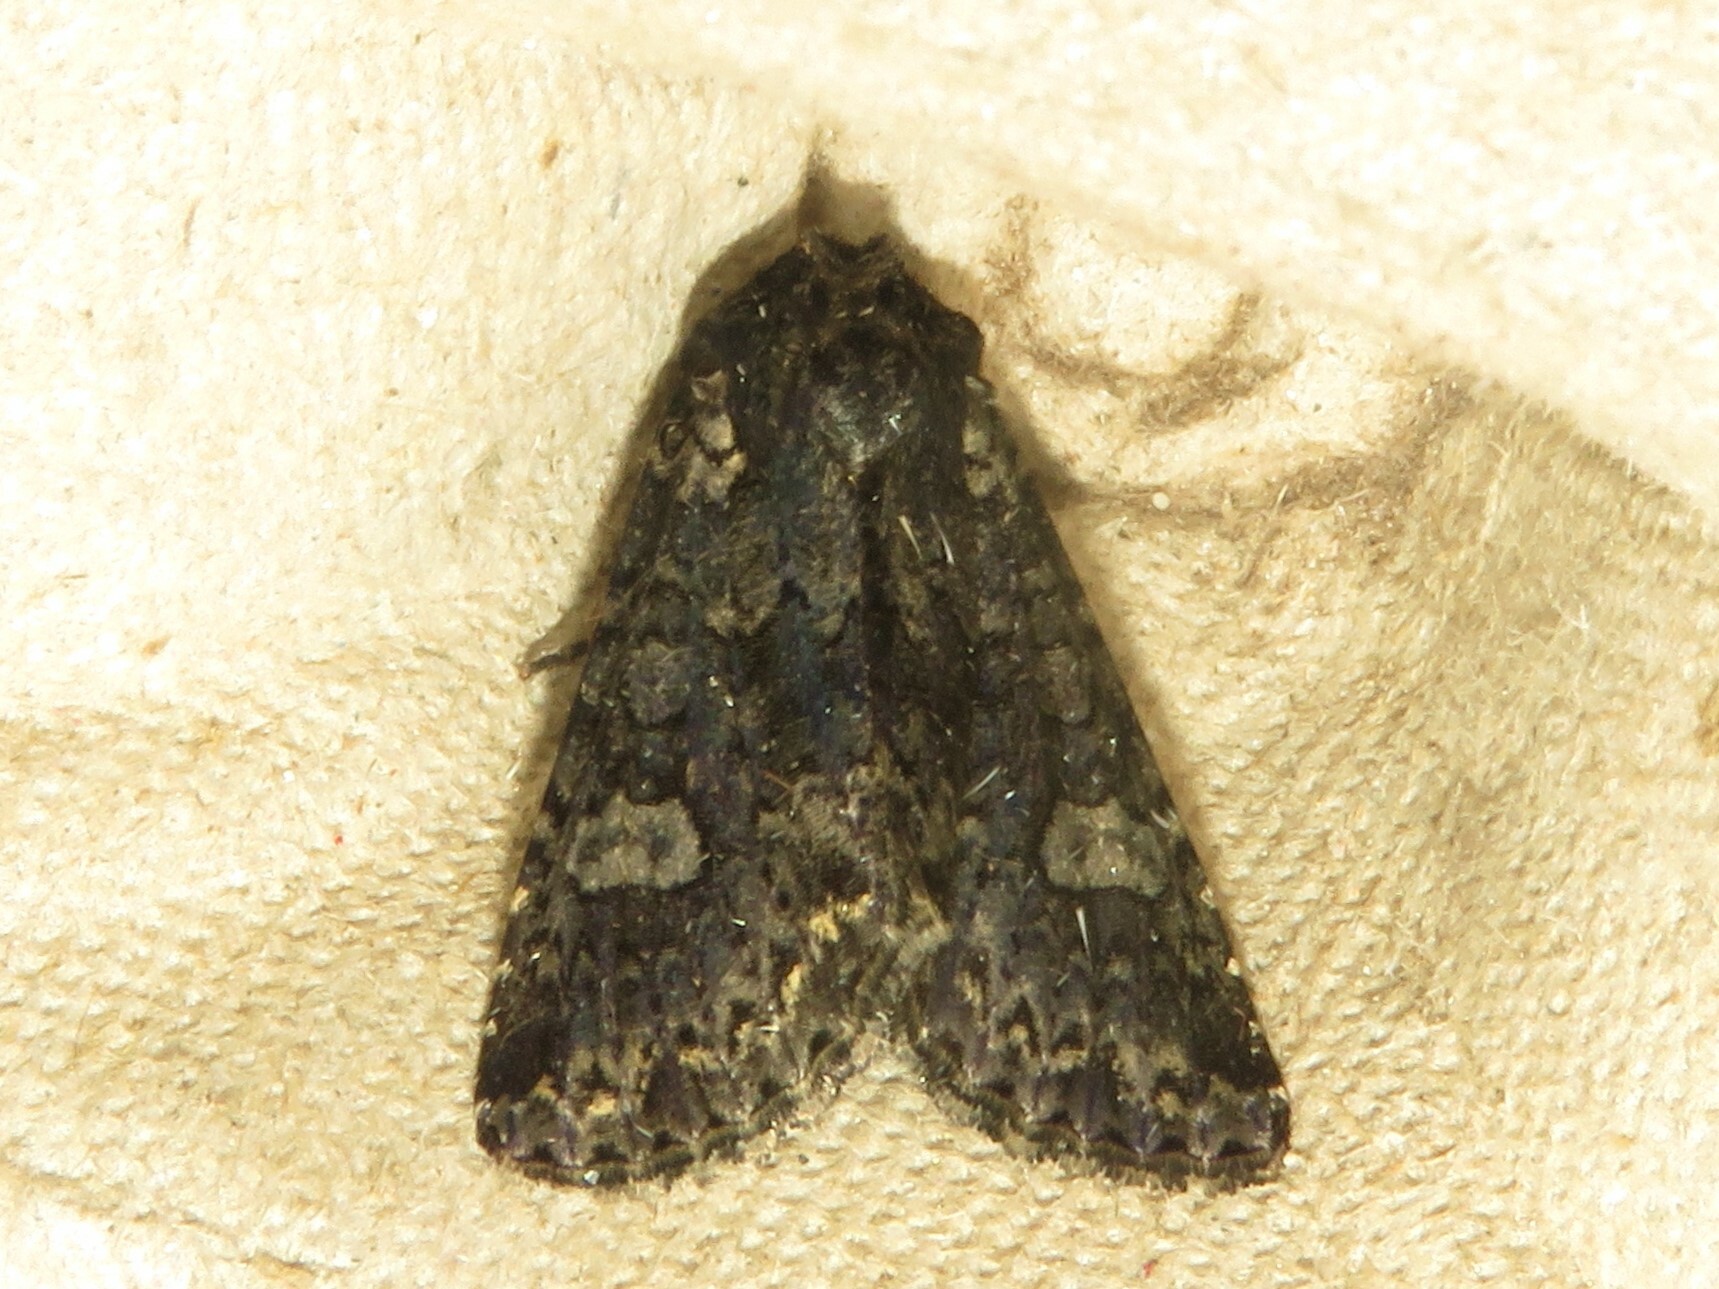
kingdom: Animalia
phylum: Arthropoda
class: Insecta
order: Lepidoptera
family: Noctuidae
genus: Melanchra
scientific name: Melanchra adjuncta
